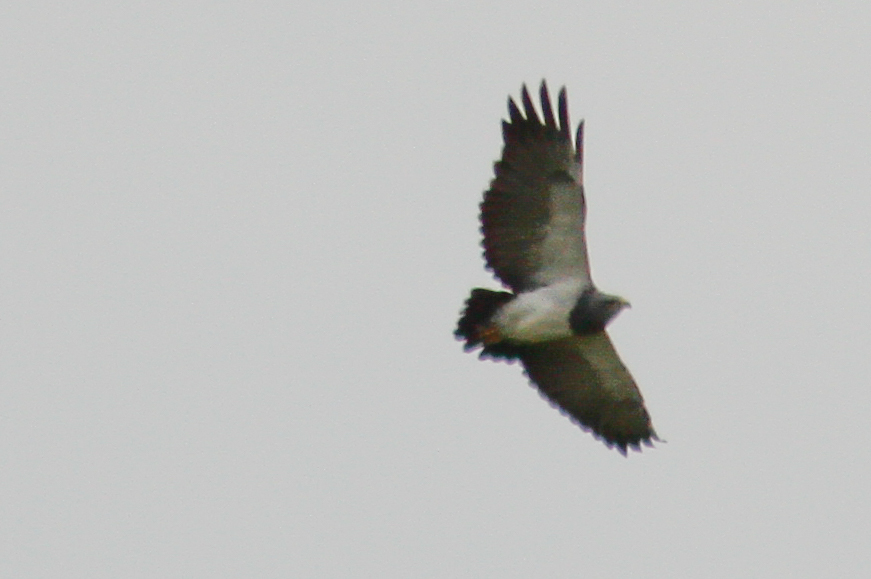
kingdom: Animalia
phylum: Chordata
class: Aves
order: Accipitriformes
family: Accipitridae
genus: Geranoaetus
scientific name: Geranoaetus melanoleucus
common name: Black-chested buzzard-eagle
